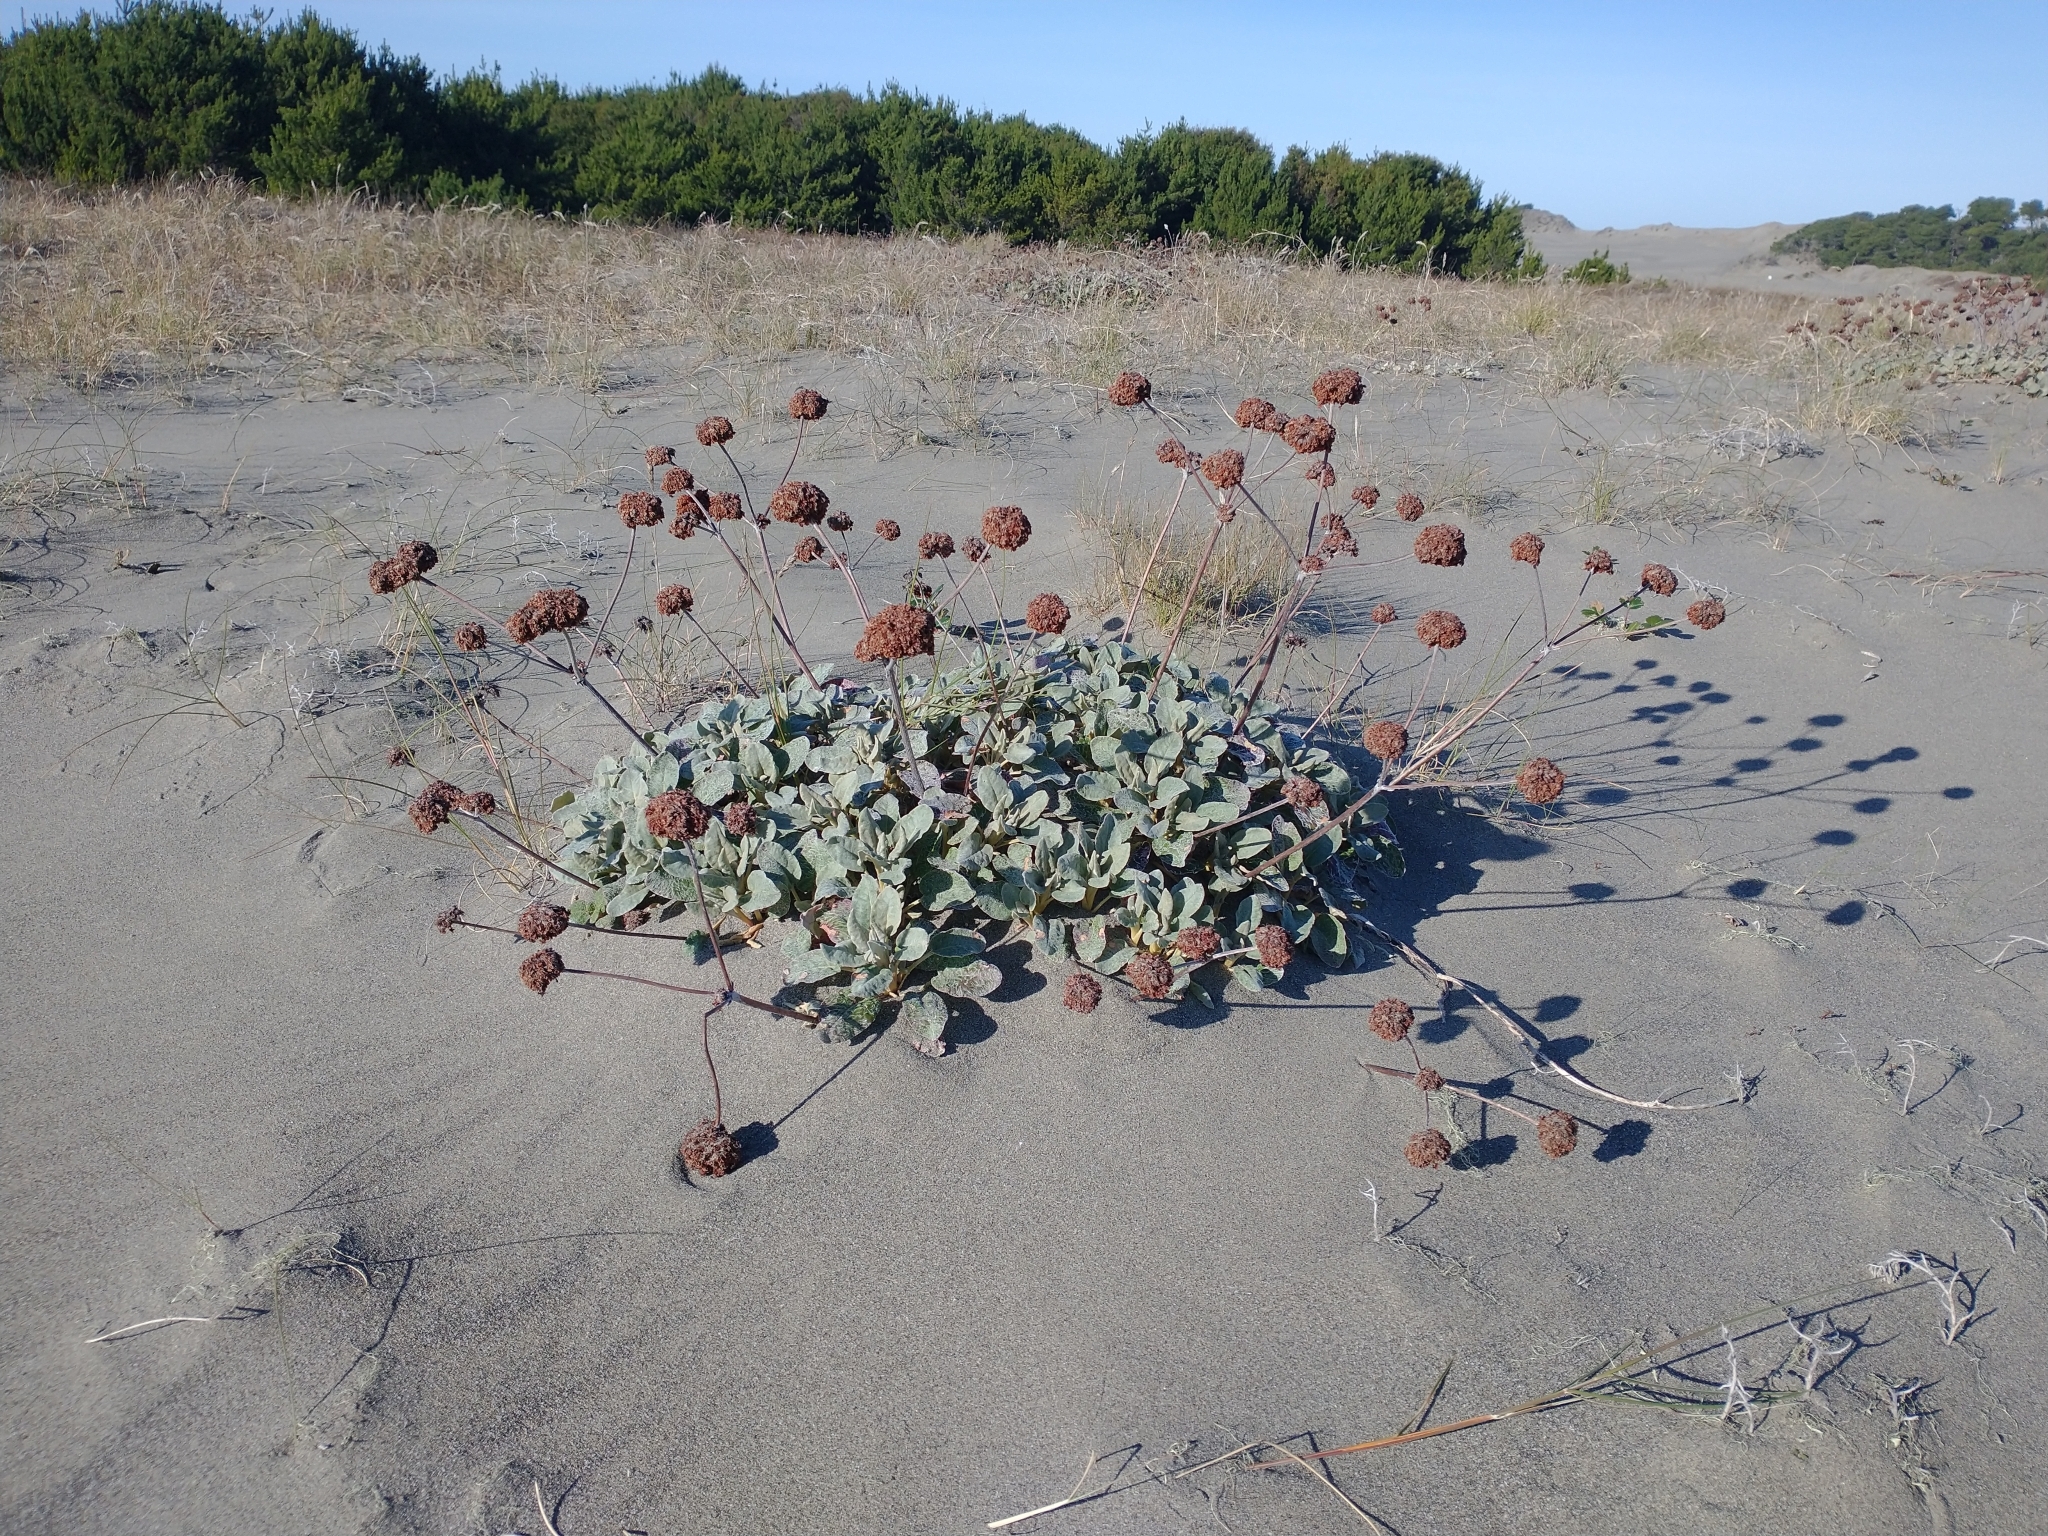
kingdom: Plantae
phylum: Tracheophyta
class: Magnoliopsida
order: Caryophyllales
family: Polygonaceae
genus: Eriogonum
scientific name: Eriogonum latifolium
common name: Seaside wild buckwheat
